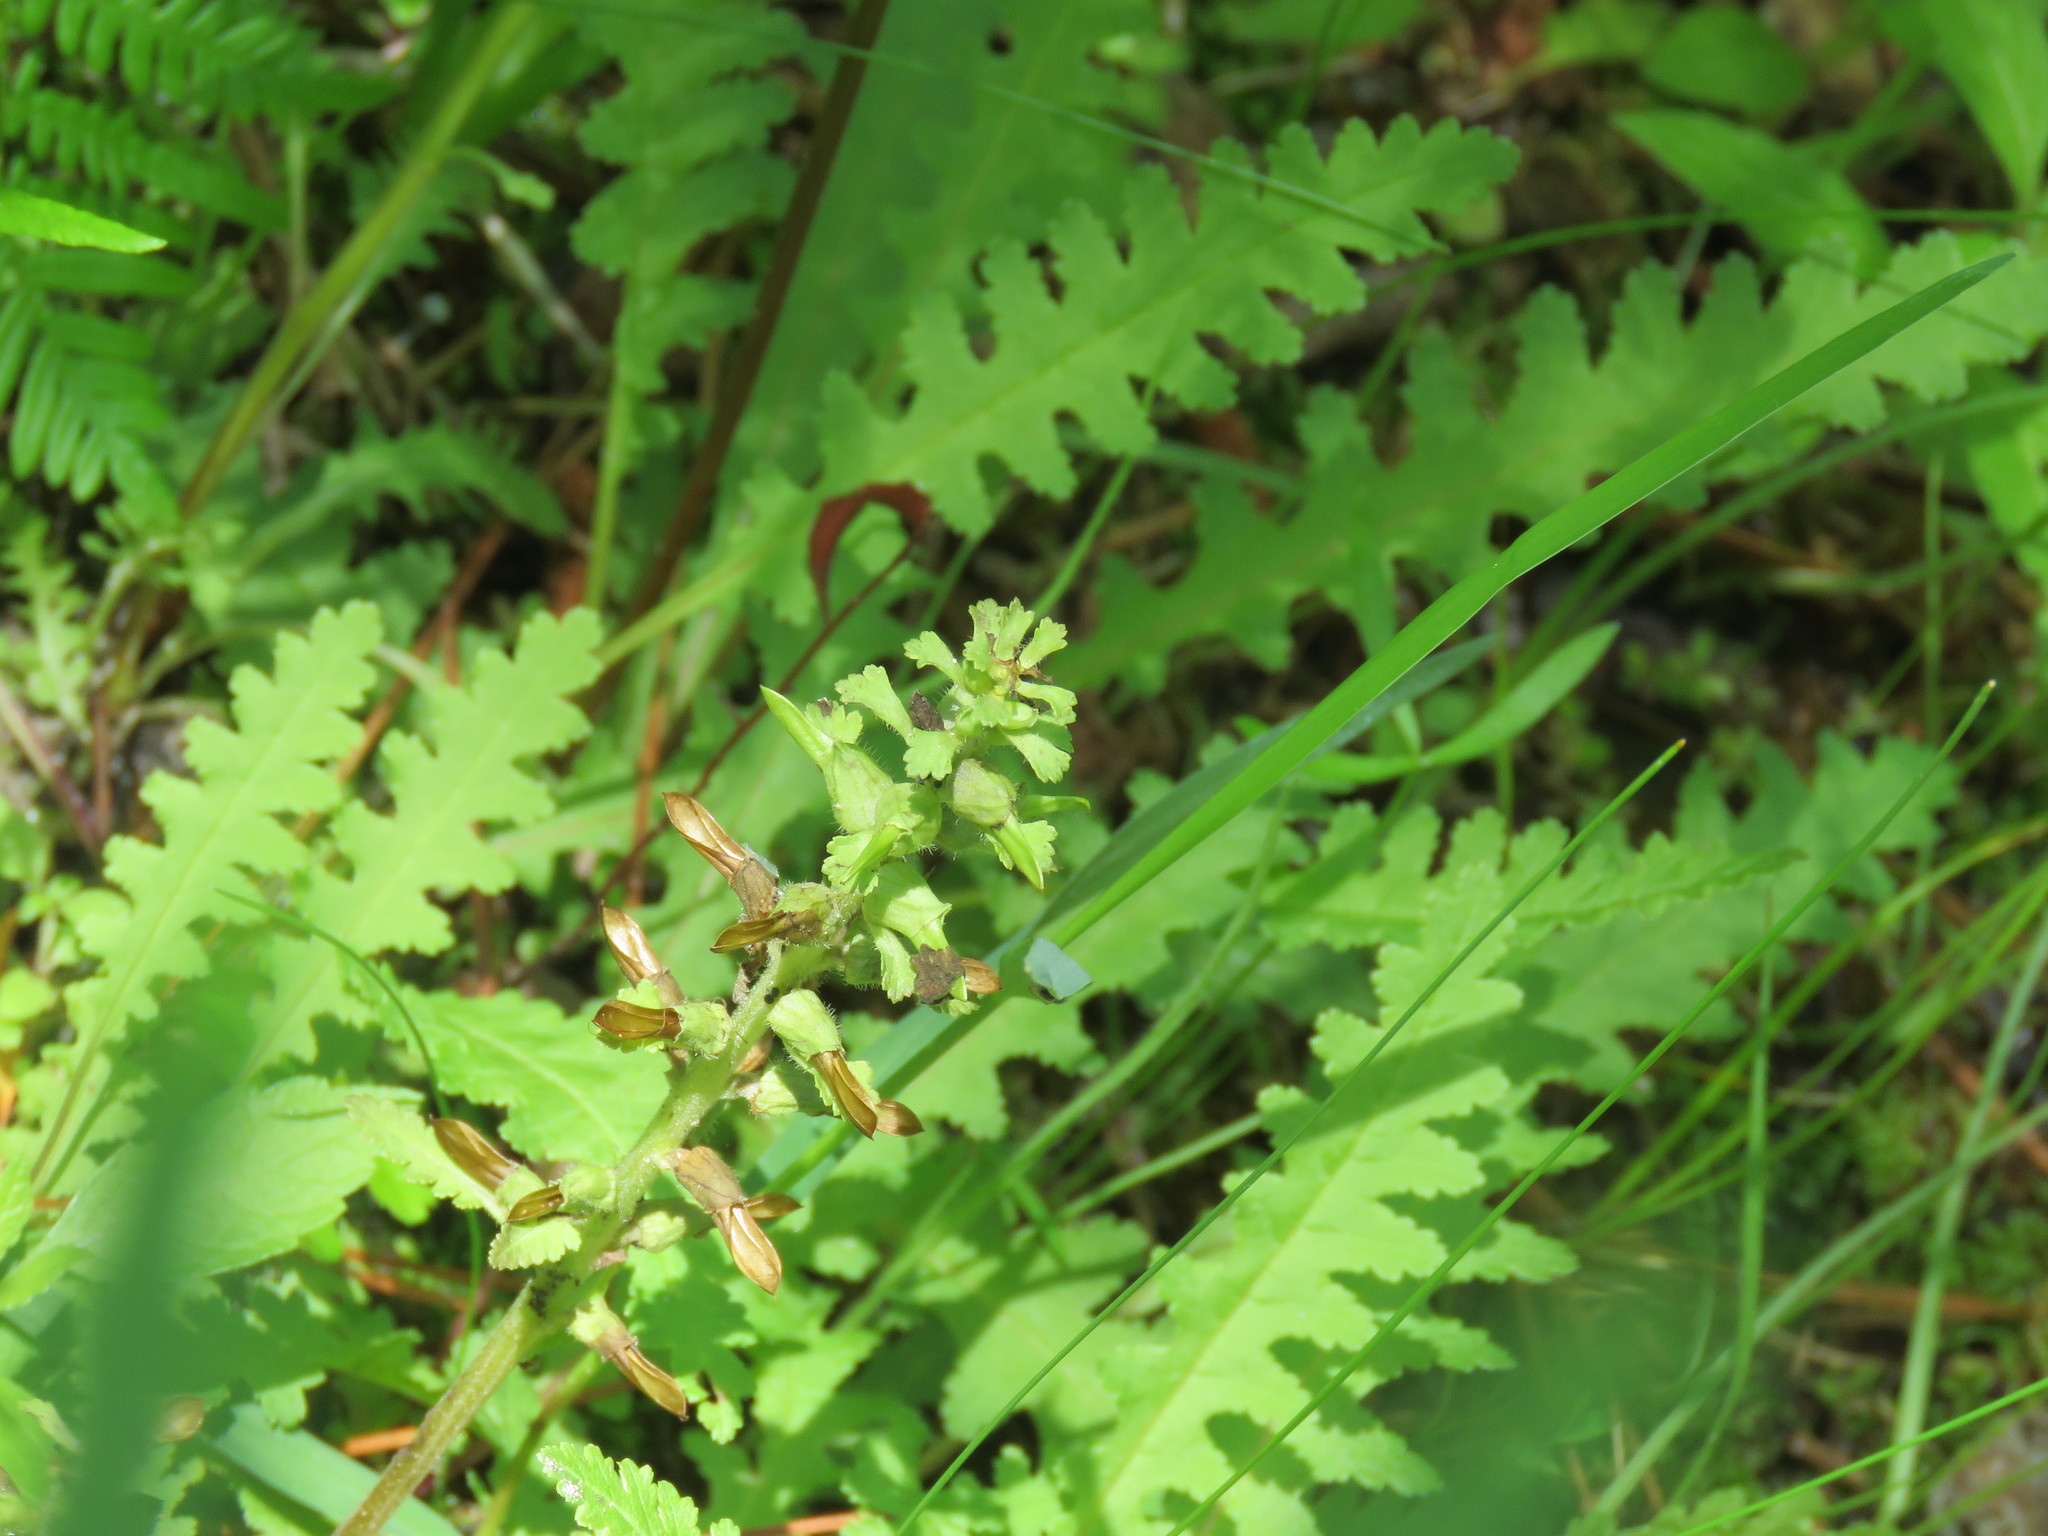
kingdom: Plantae
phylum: Tracheophyta
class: Magnoliopsida
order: Lamiales
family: Orobanchaceae
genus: Pedicularis
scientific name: Pedicularis canadensis
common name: Early lousewort
